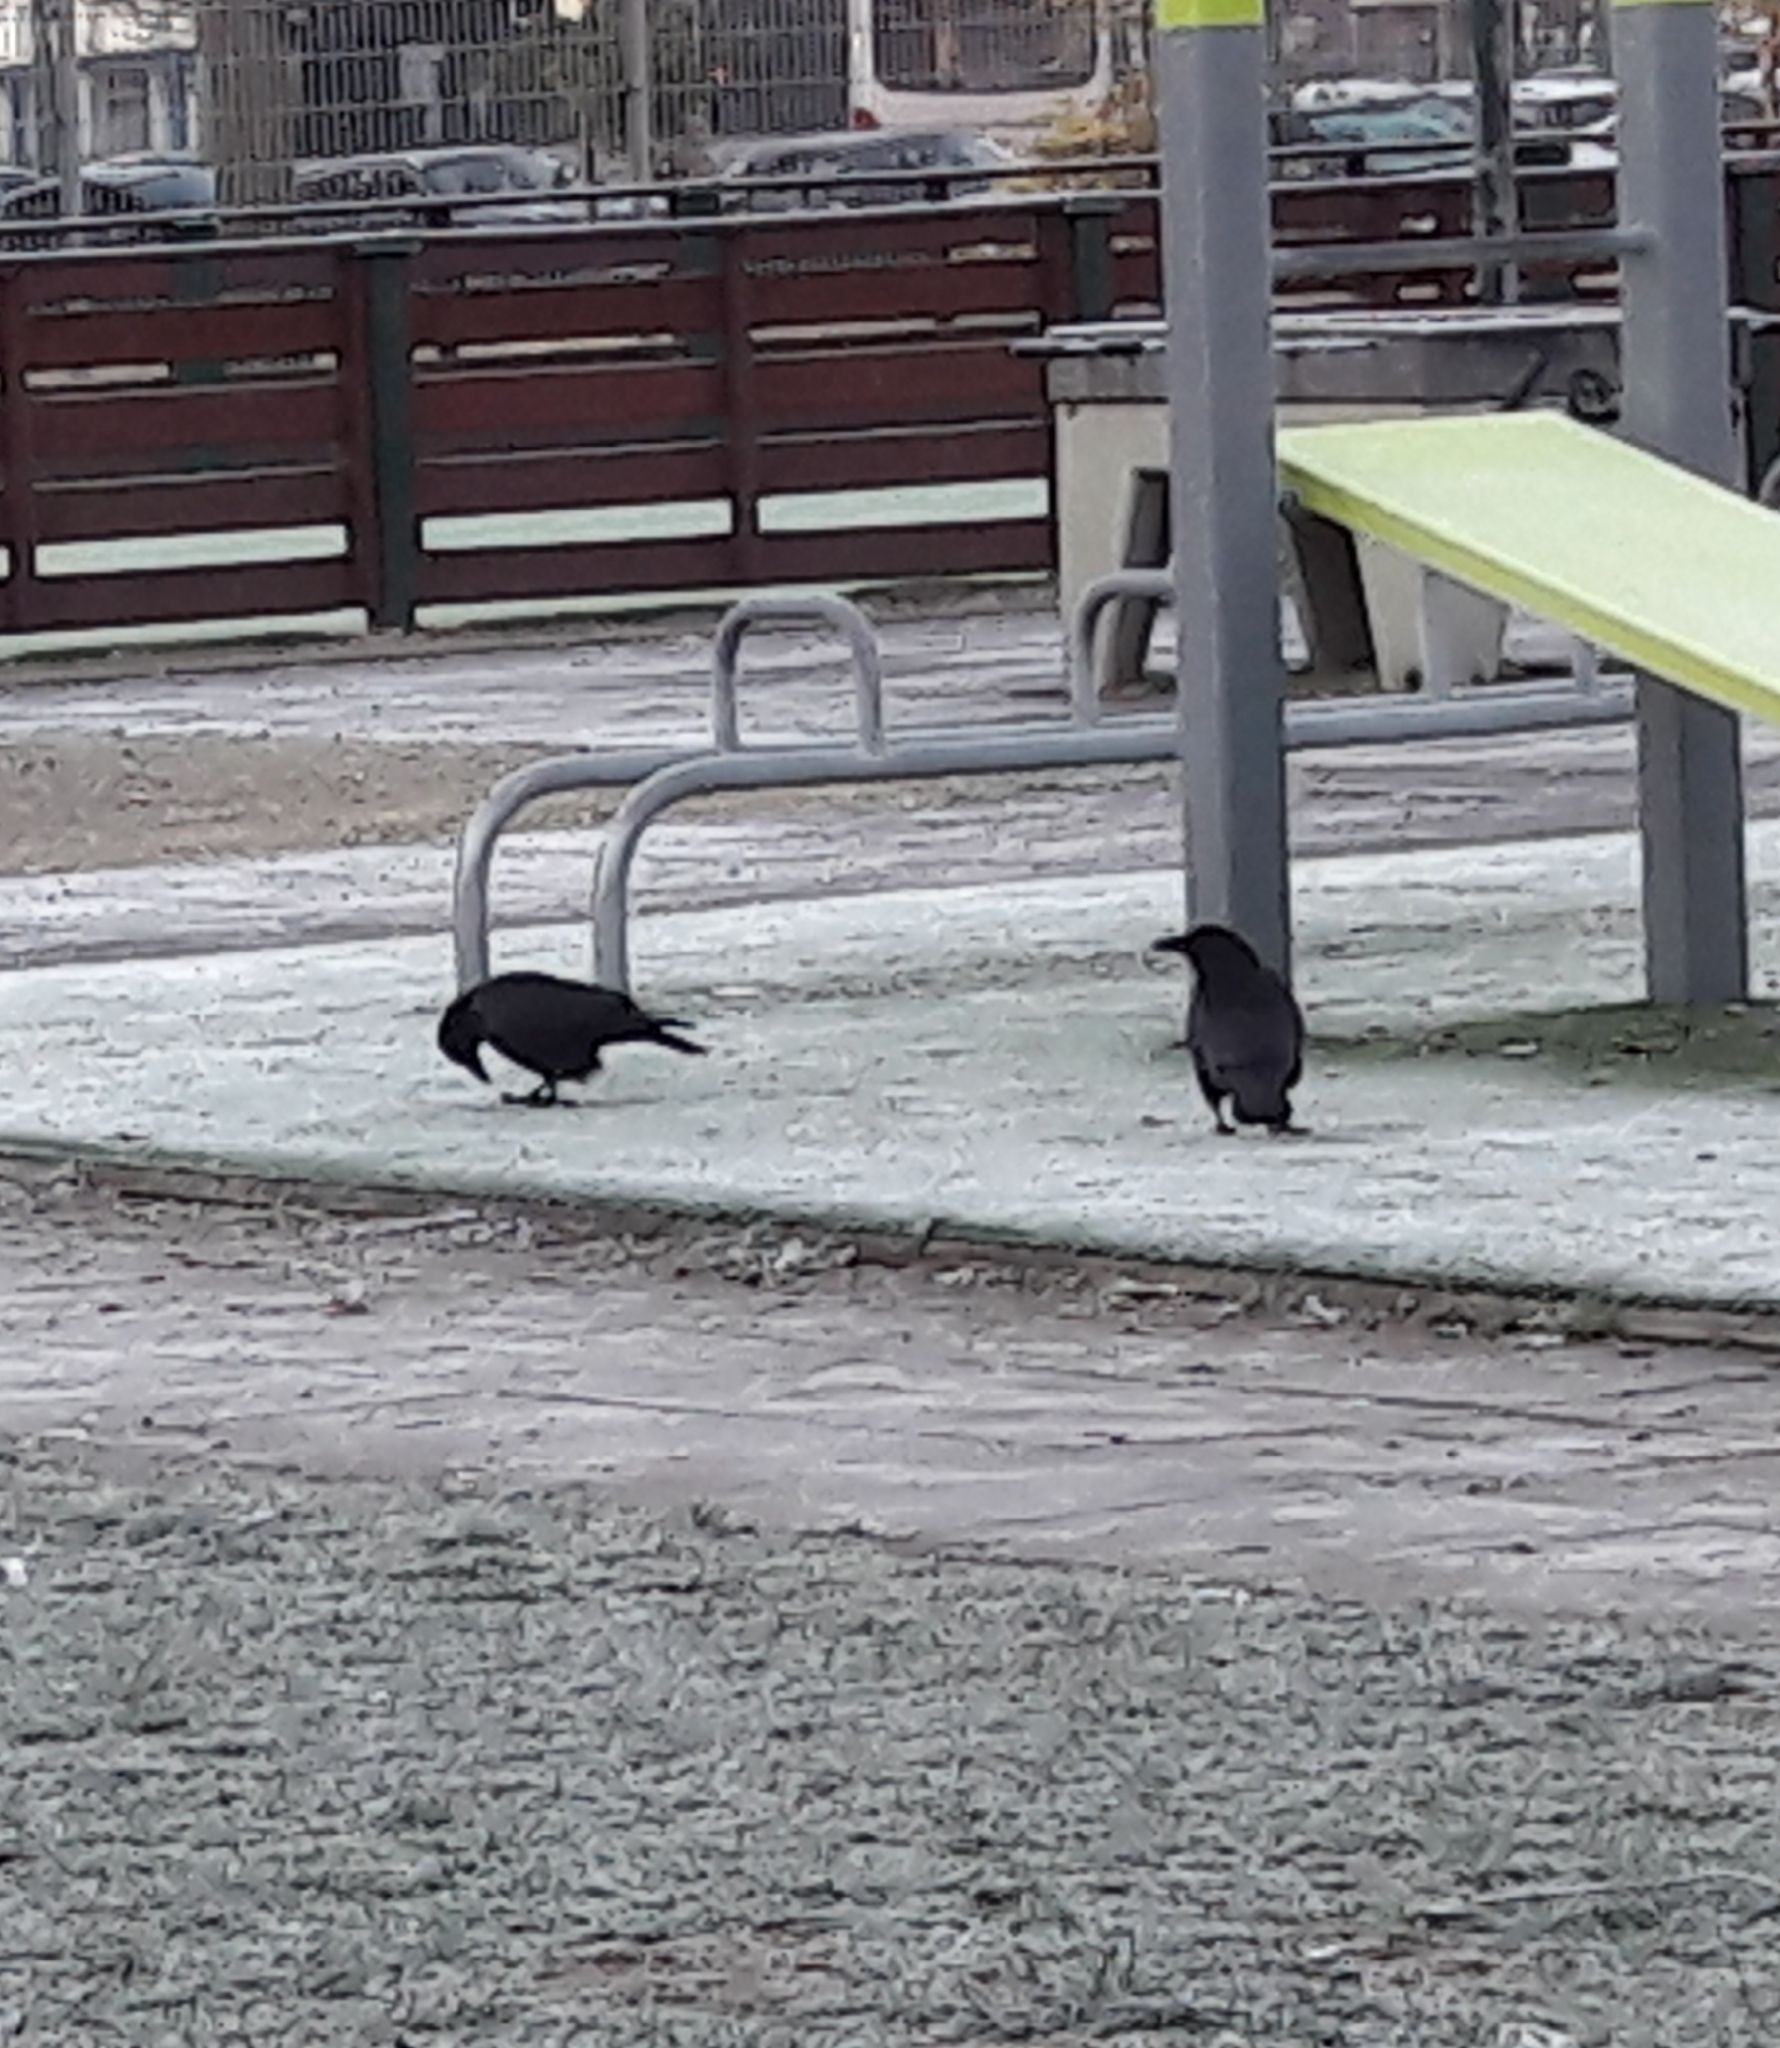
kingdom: Animalia
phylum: Chordata
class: Aves
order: Passeriformes
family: Corvidae
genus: Corvus
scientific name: Corvus corone
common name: Carrion crow
